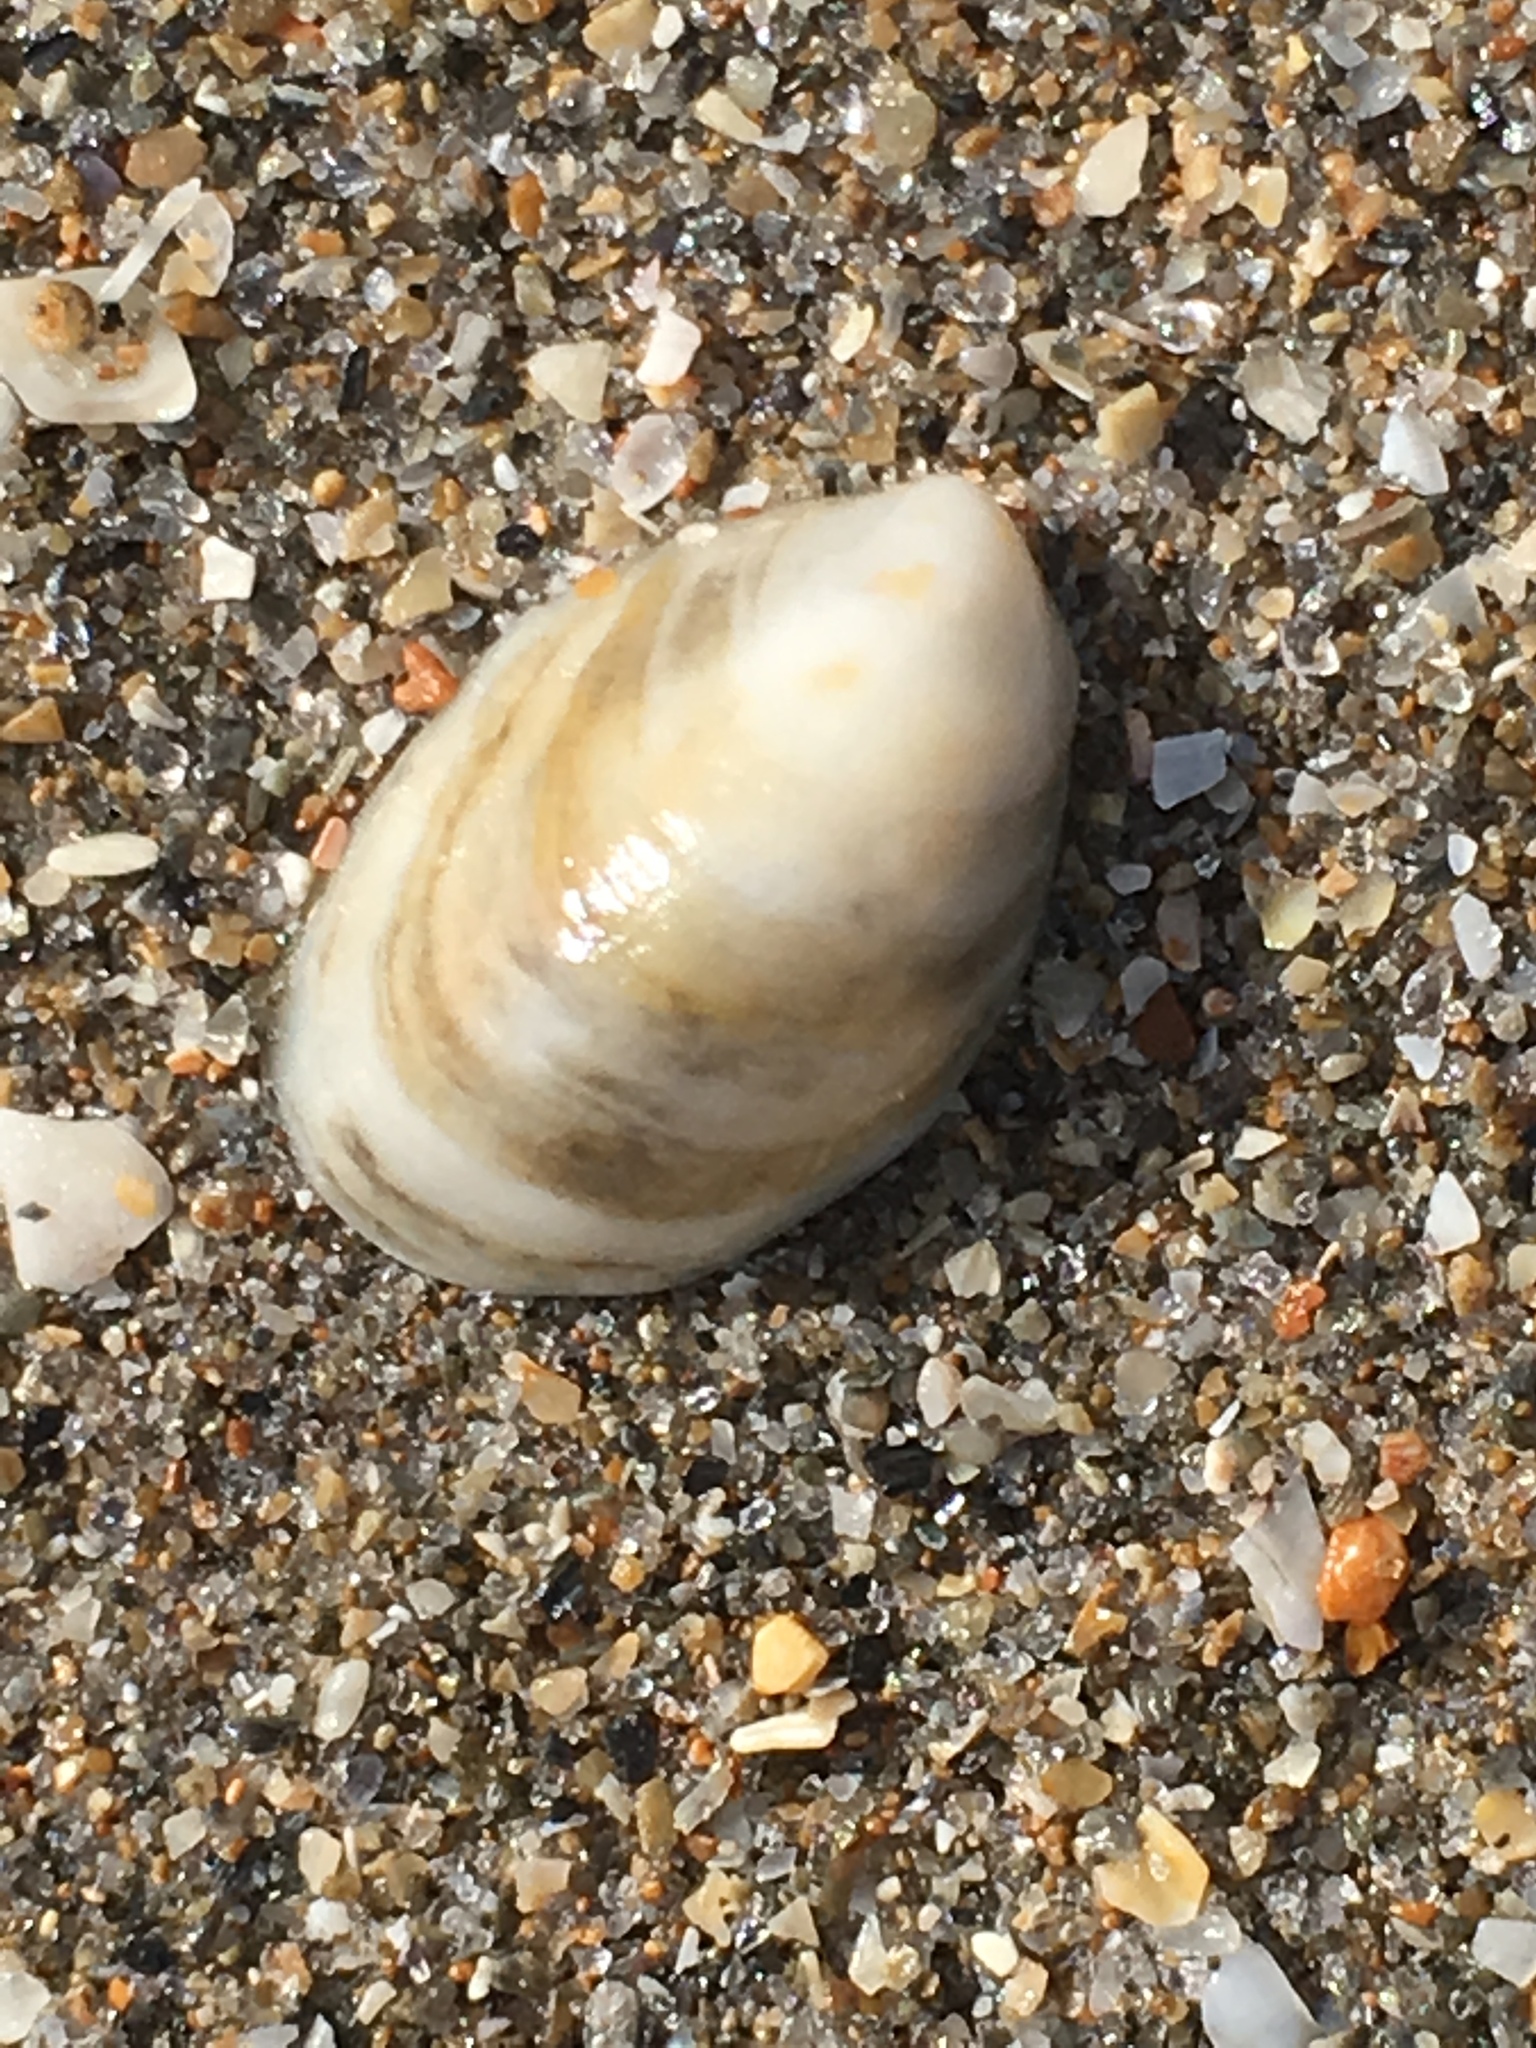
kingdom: Animalia
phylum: Mollusca
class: Gastropoda
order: Littorinimorpha
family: Calyptraeidae
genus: Crepidula
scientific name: Crepidula fornicata
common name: Slipper limpet
